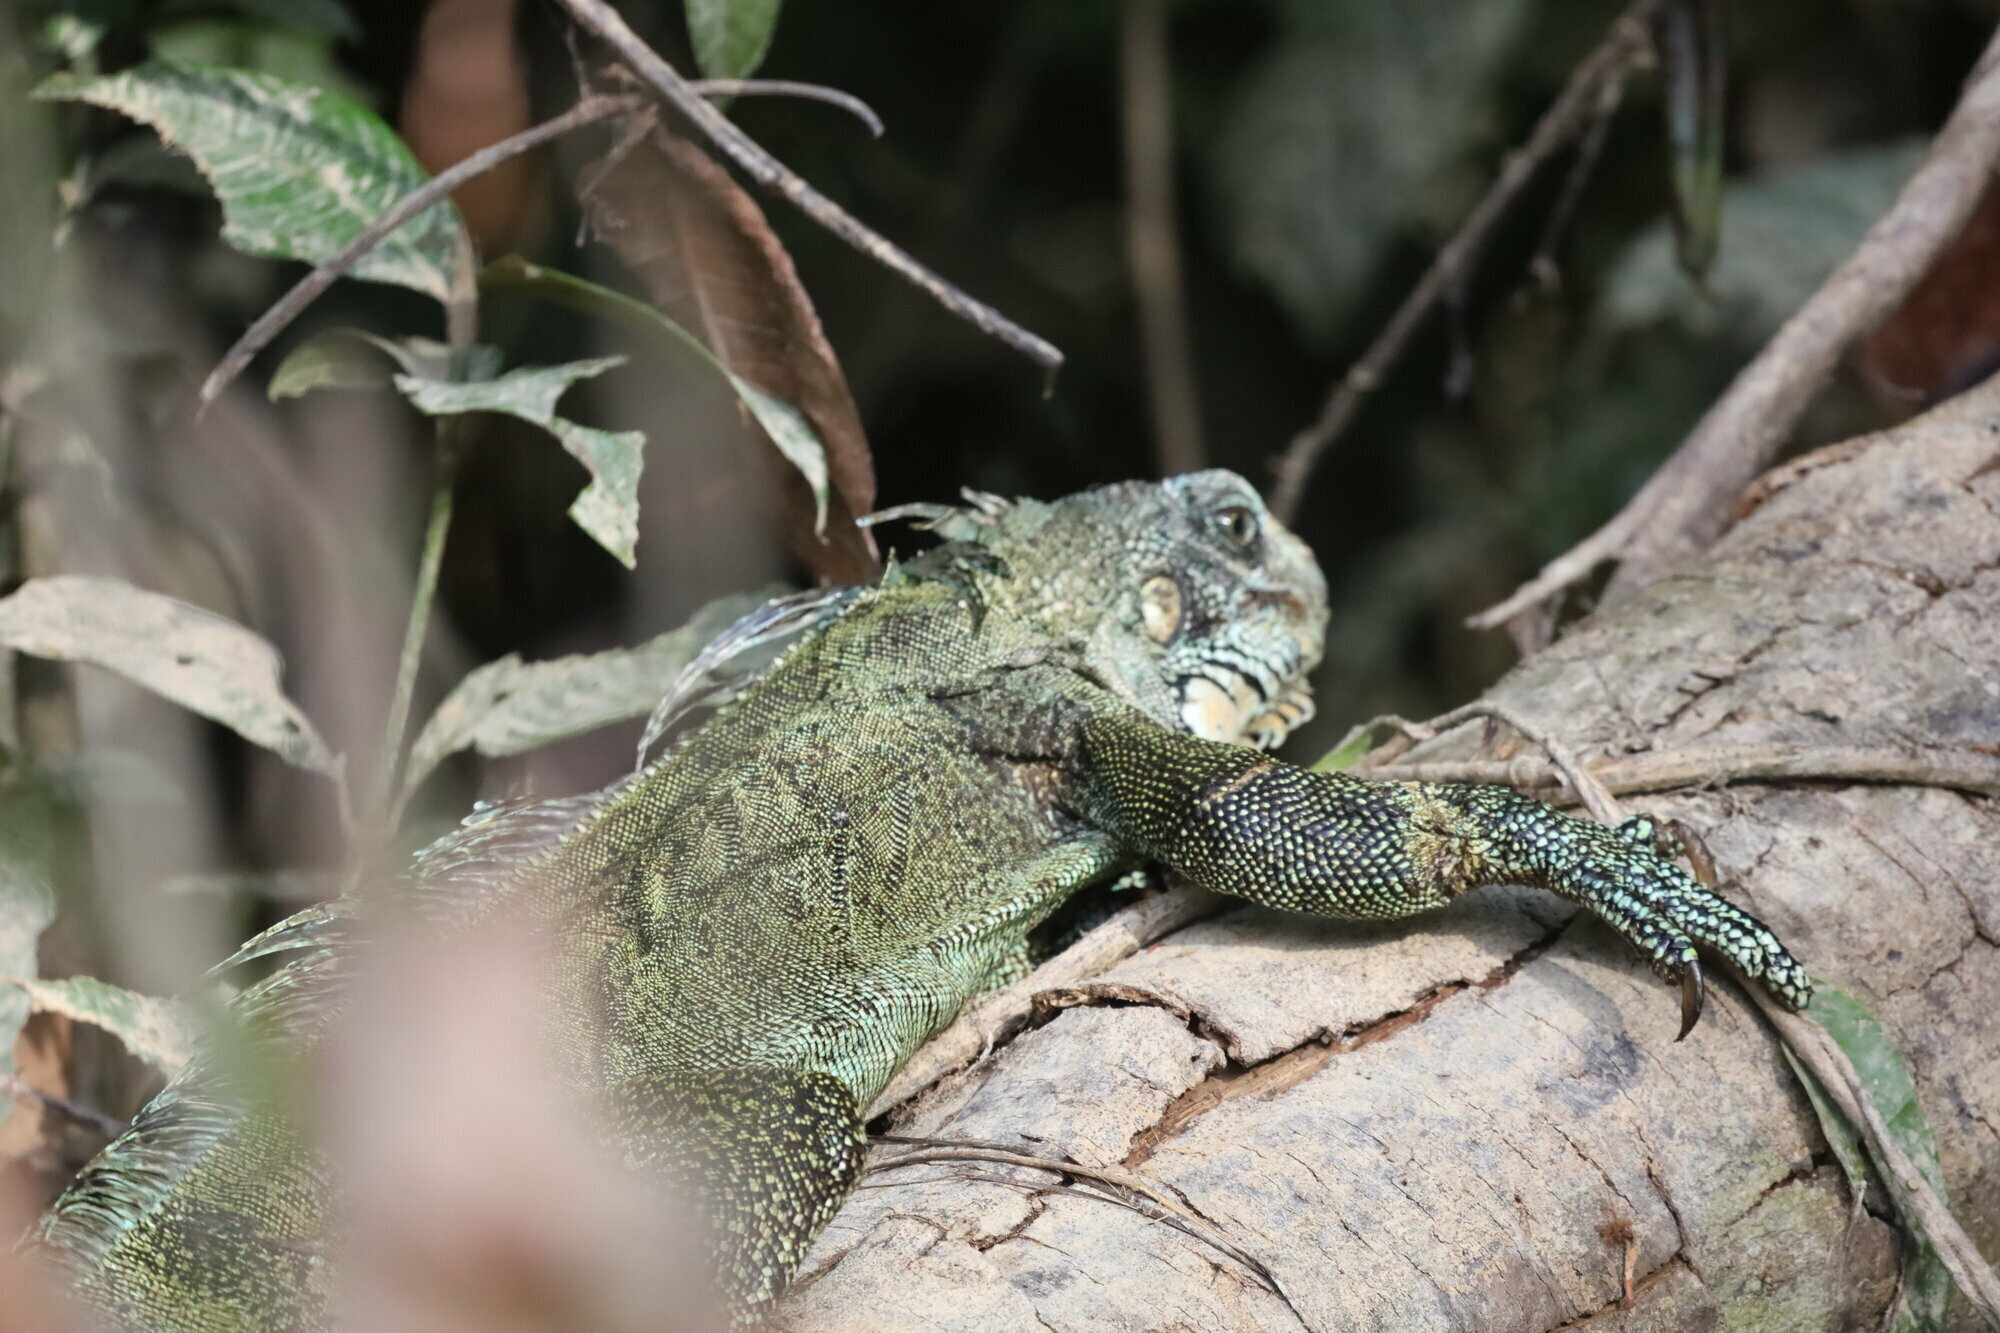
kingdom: Animalia
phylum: Chordata
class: Squamata
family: Iguanidae
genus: Iguana
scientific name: Iguana iguana
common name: Green iguana
